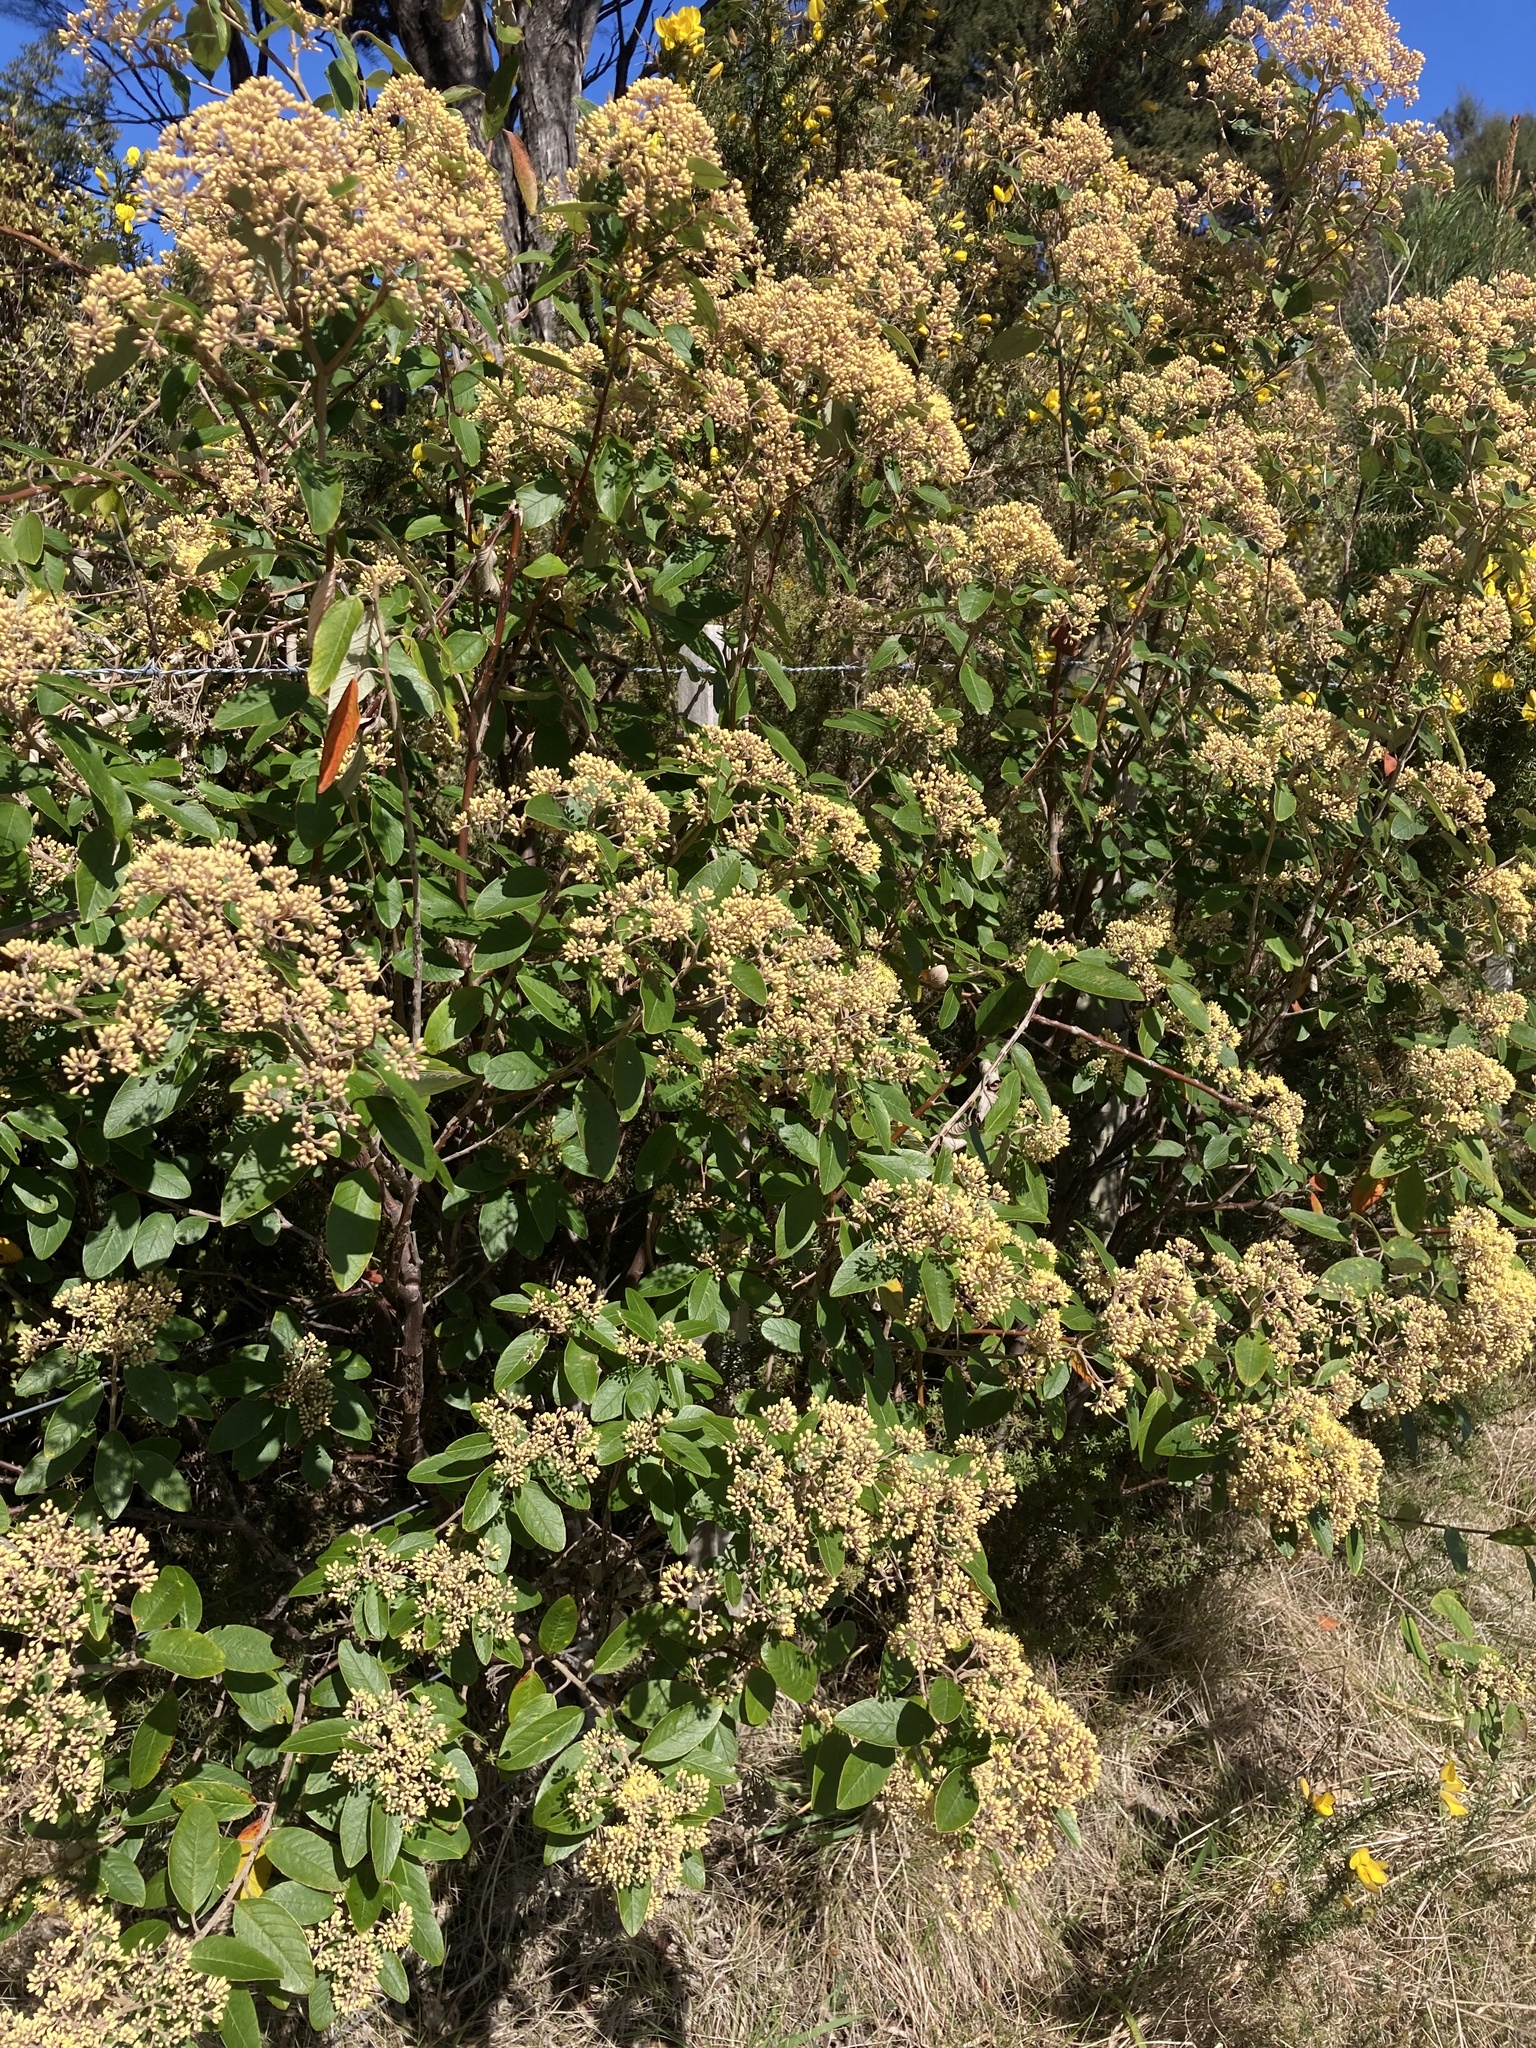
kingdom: Plantae
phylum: Tracheophyta
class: Magnoliopsida
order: Rosales
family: Rhamnaceae
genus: Pomaderris
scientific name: Pomaderris kumeraho
